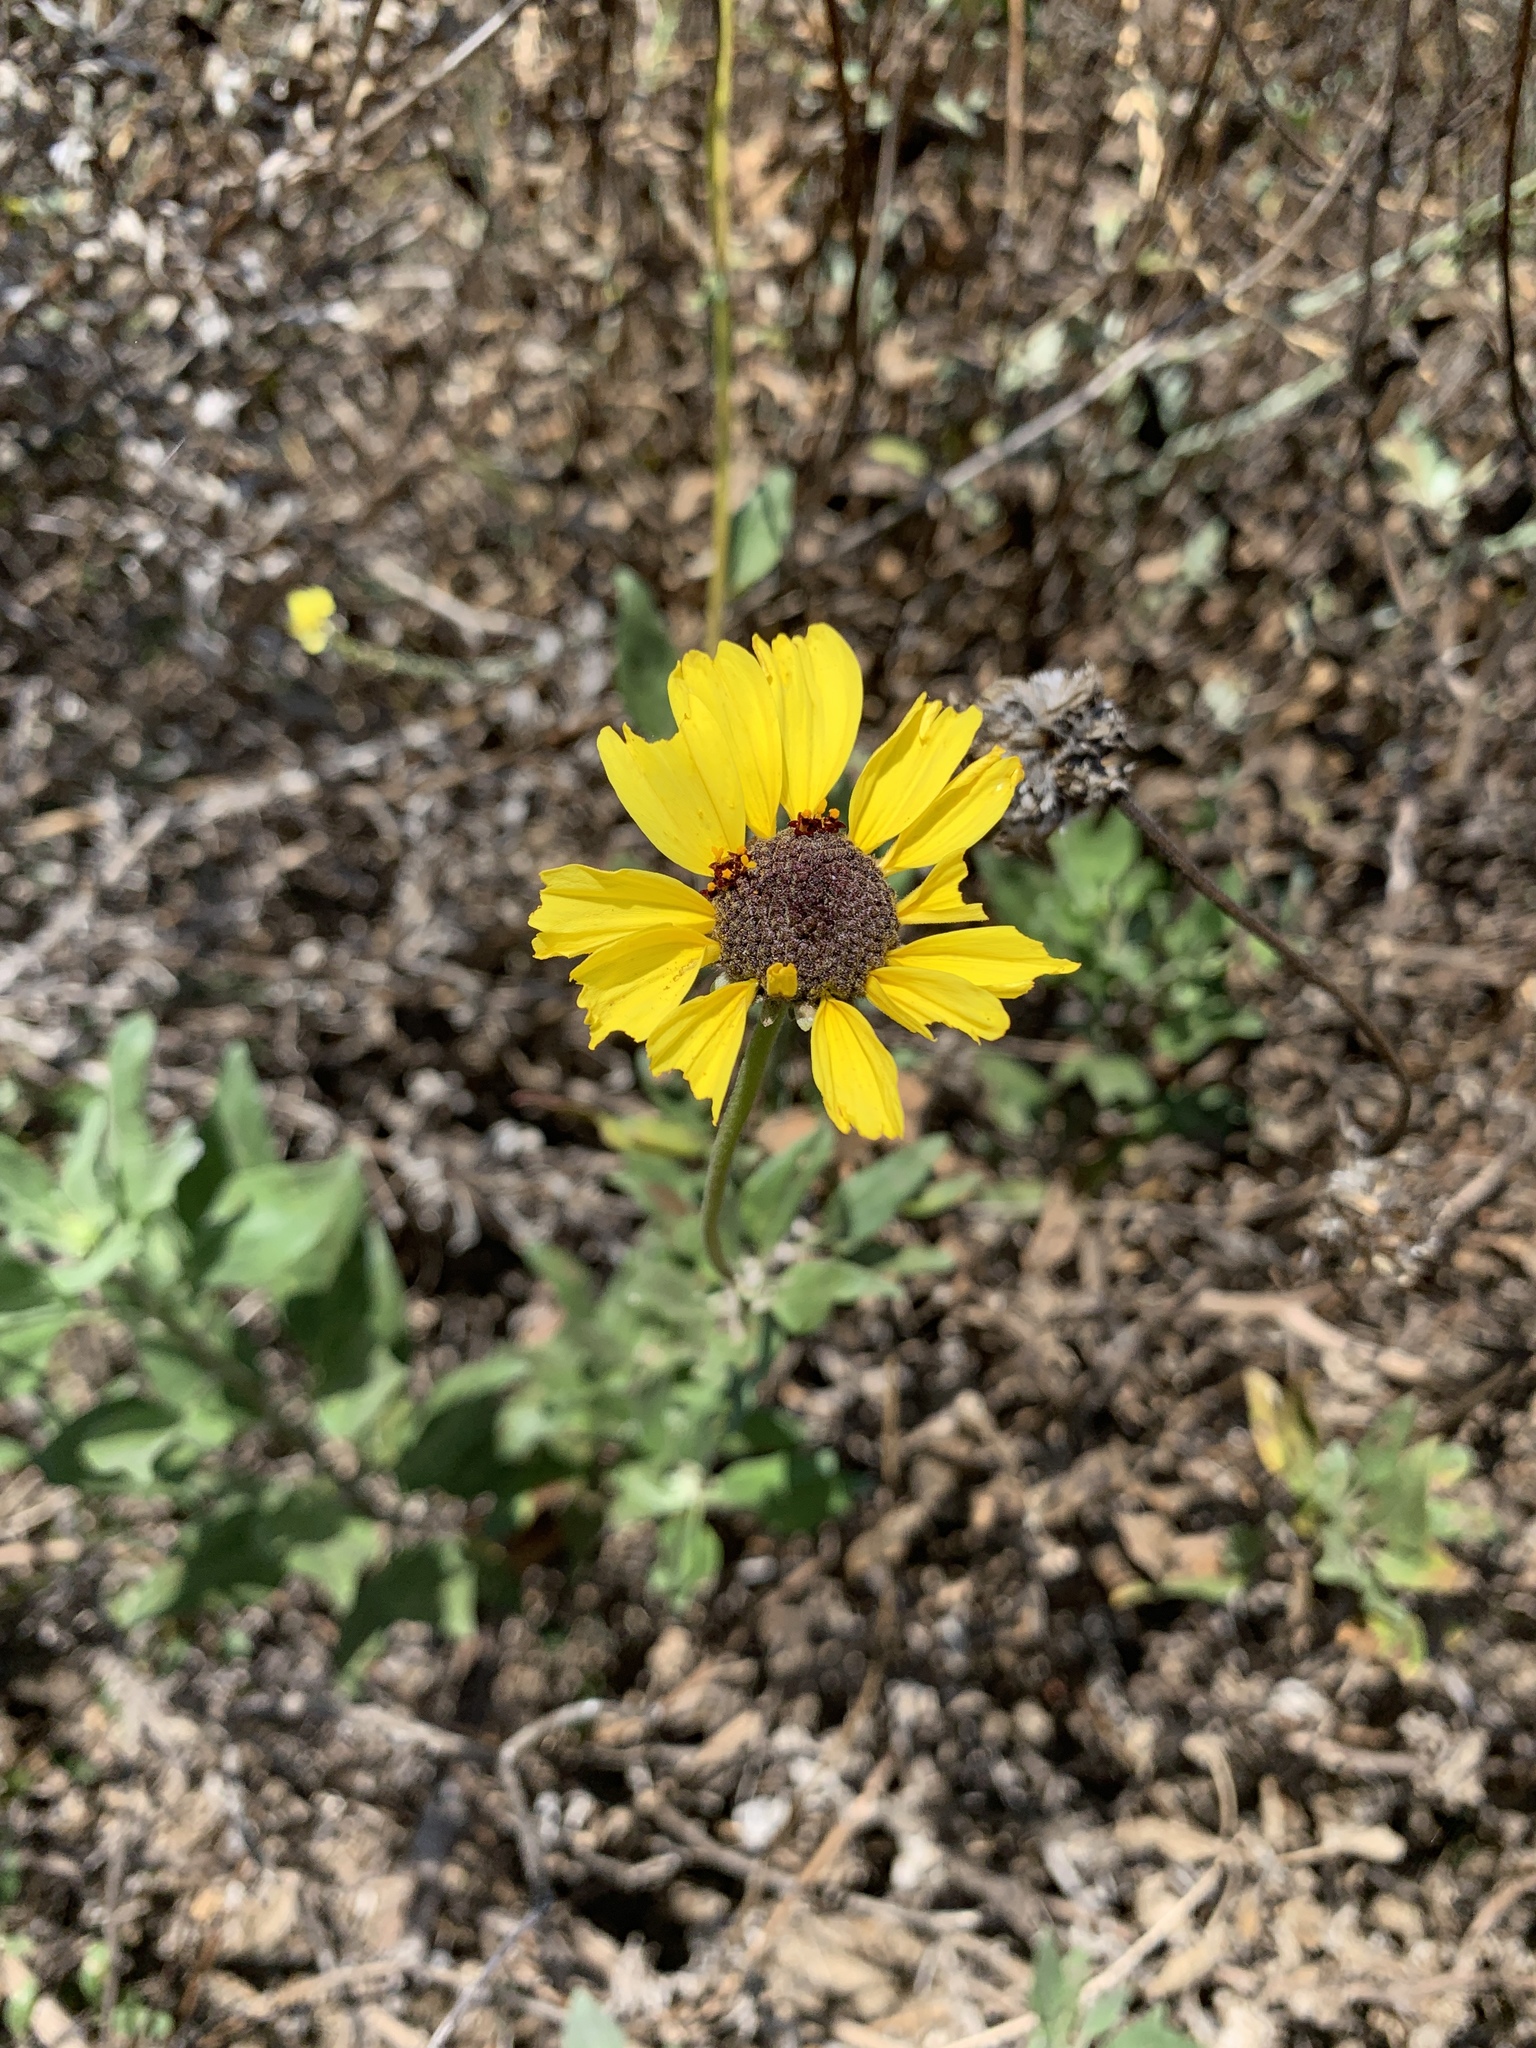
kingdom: Plantae
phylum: Tracheophyta
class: Magnoliopsida
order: Asterales
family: Asteraceae
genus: Encelia
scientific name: Encelia californica
